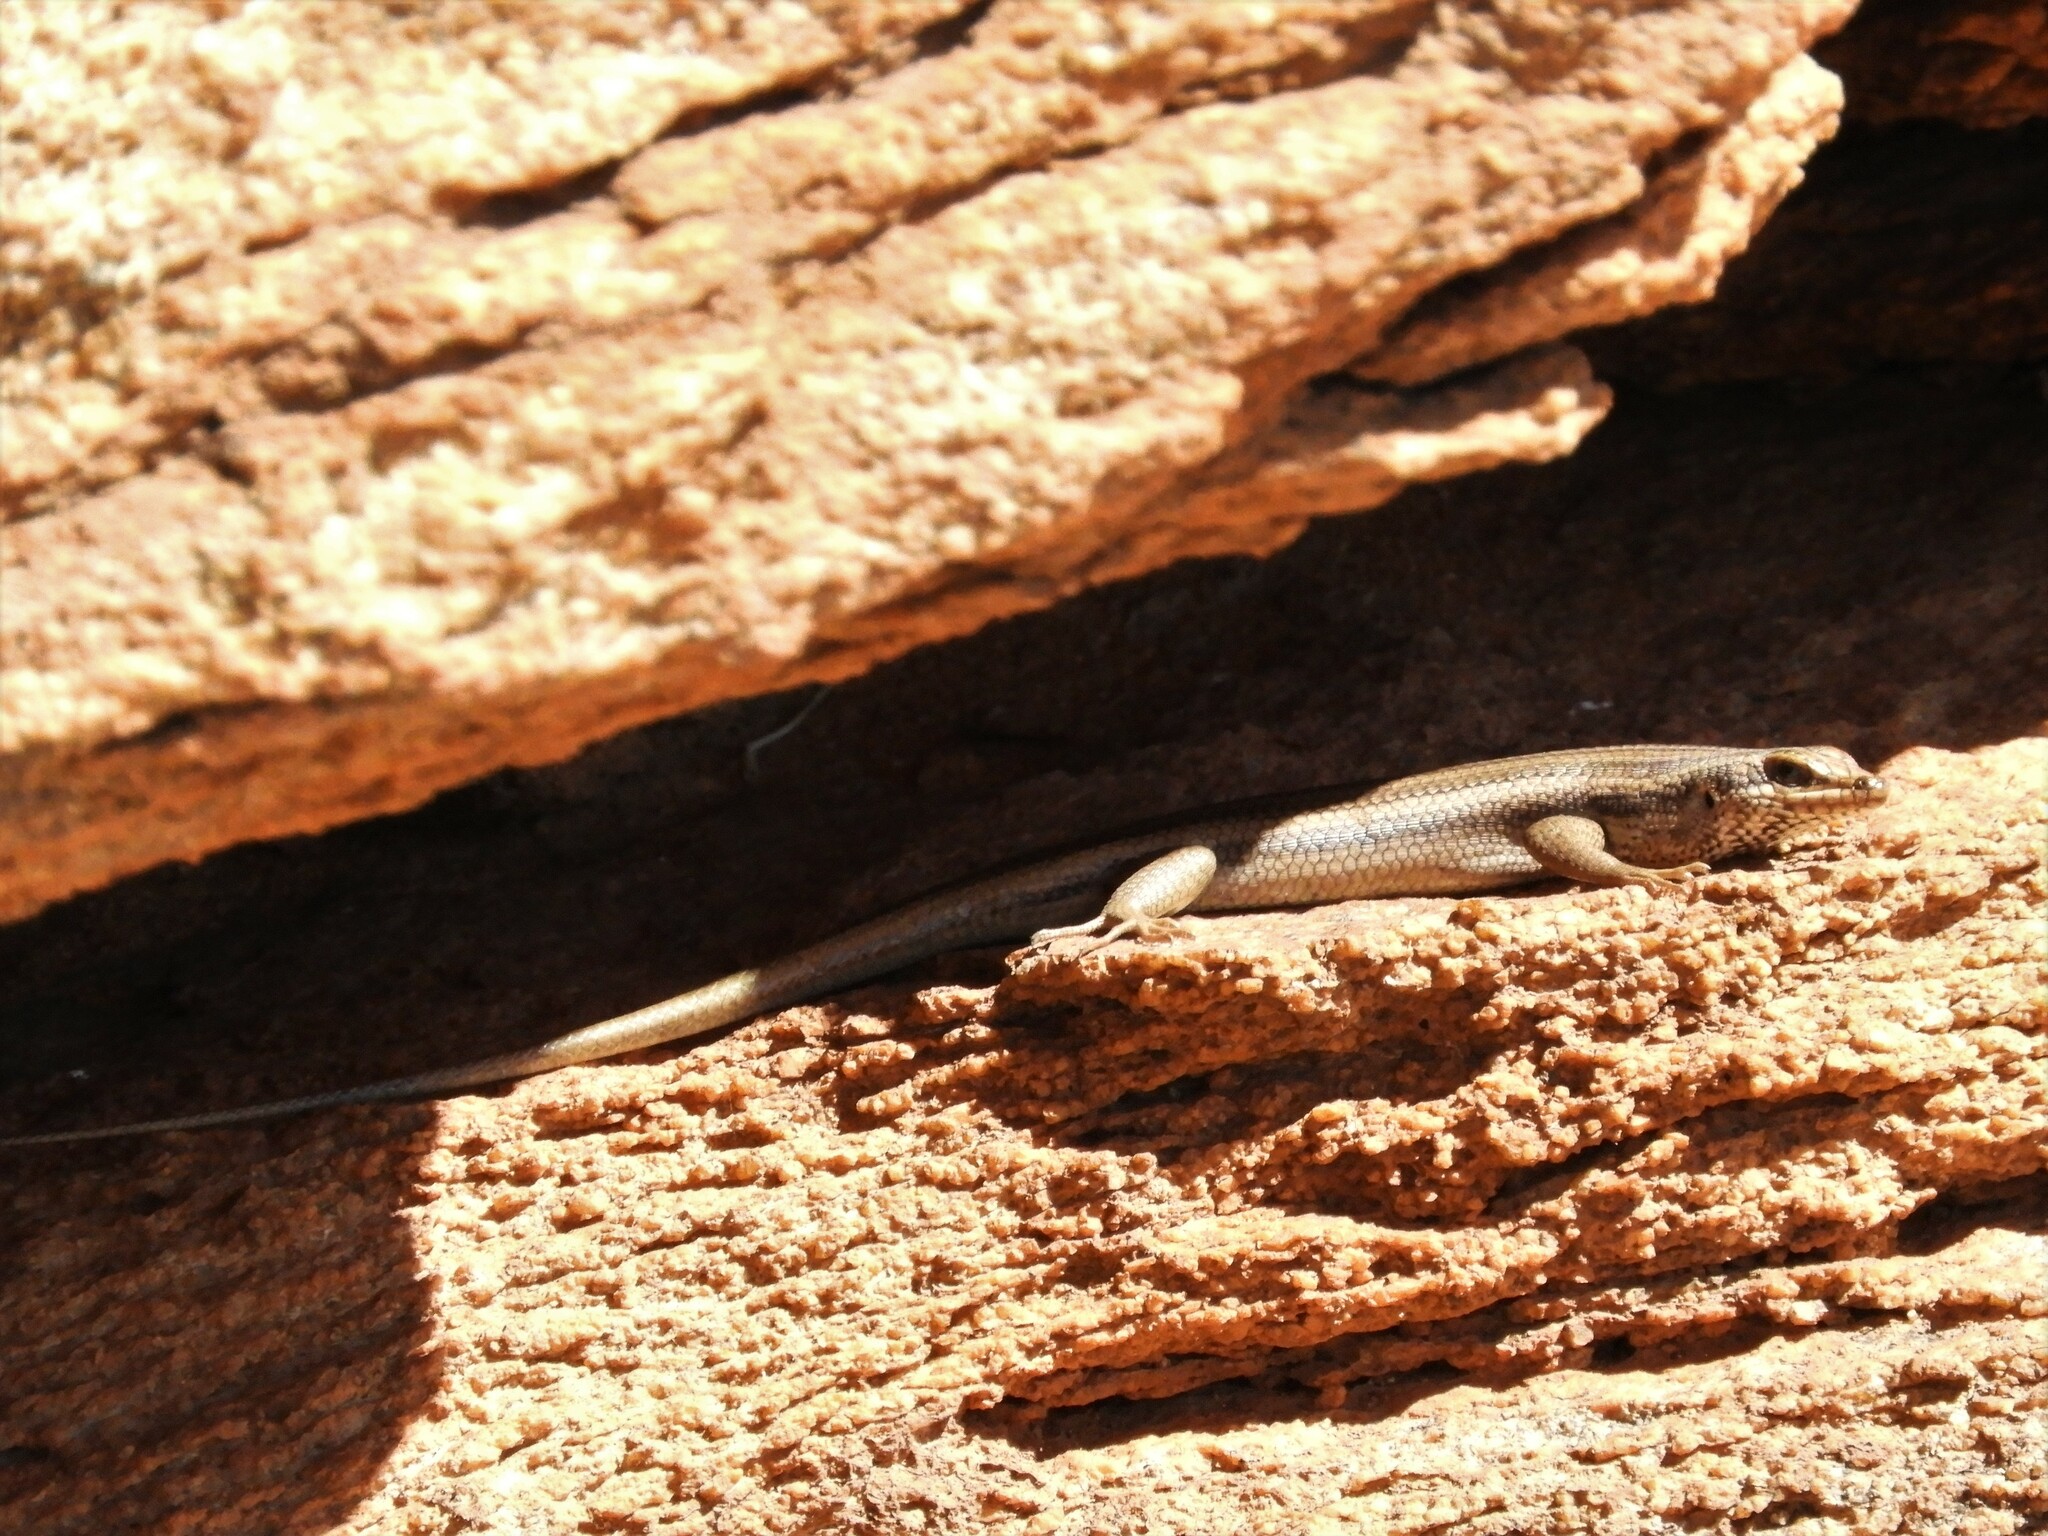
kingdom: Animalia
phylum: Chordata
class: Squamata
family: Scincidae
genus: Trachylepis
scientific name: Trachylepis sulcata
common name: Western rock skink
